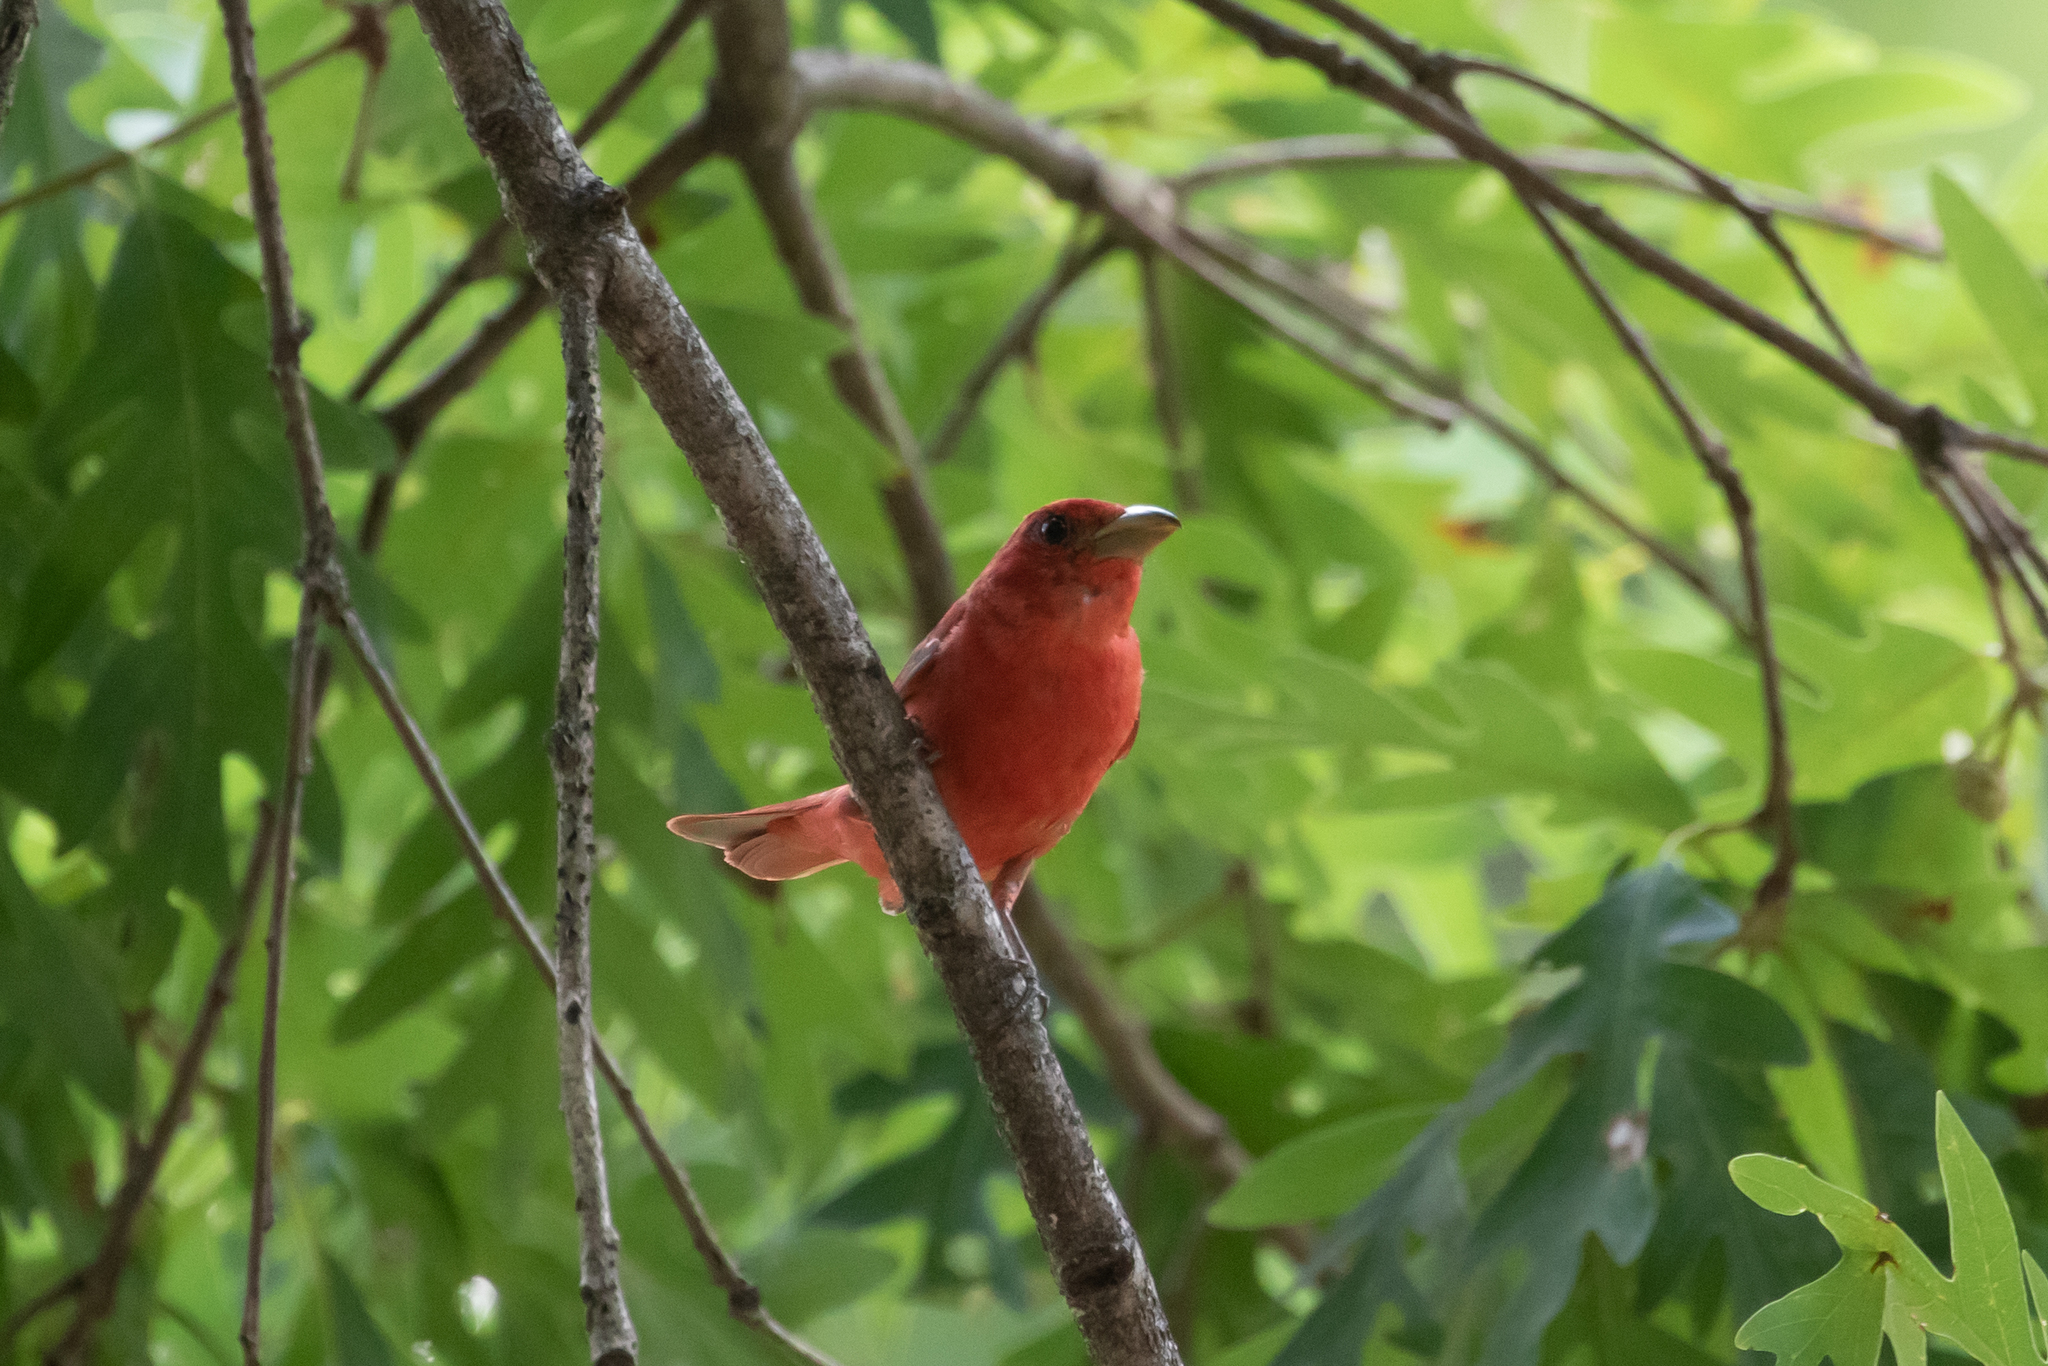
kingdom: Animalia
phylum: Chordata
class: Aves
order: Passeriformes
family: Cardinalidae
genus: Piranga
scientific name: Piranga rubra
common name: Summer tanager
